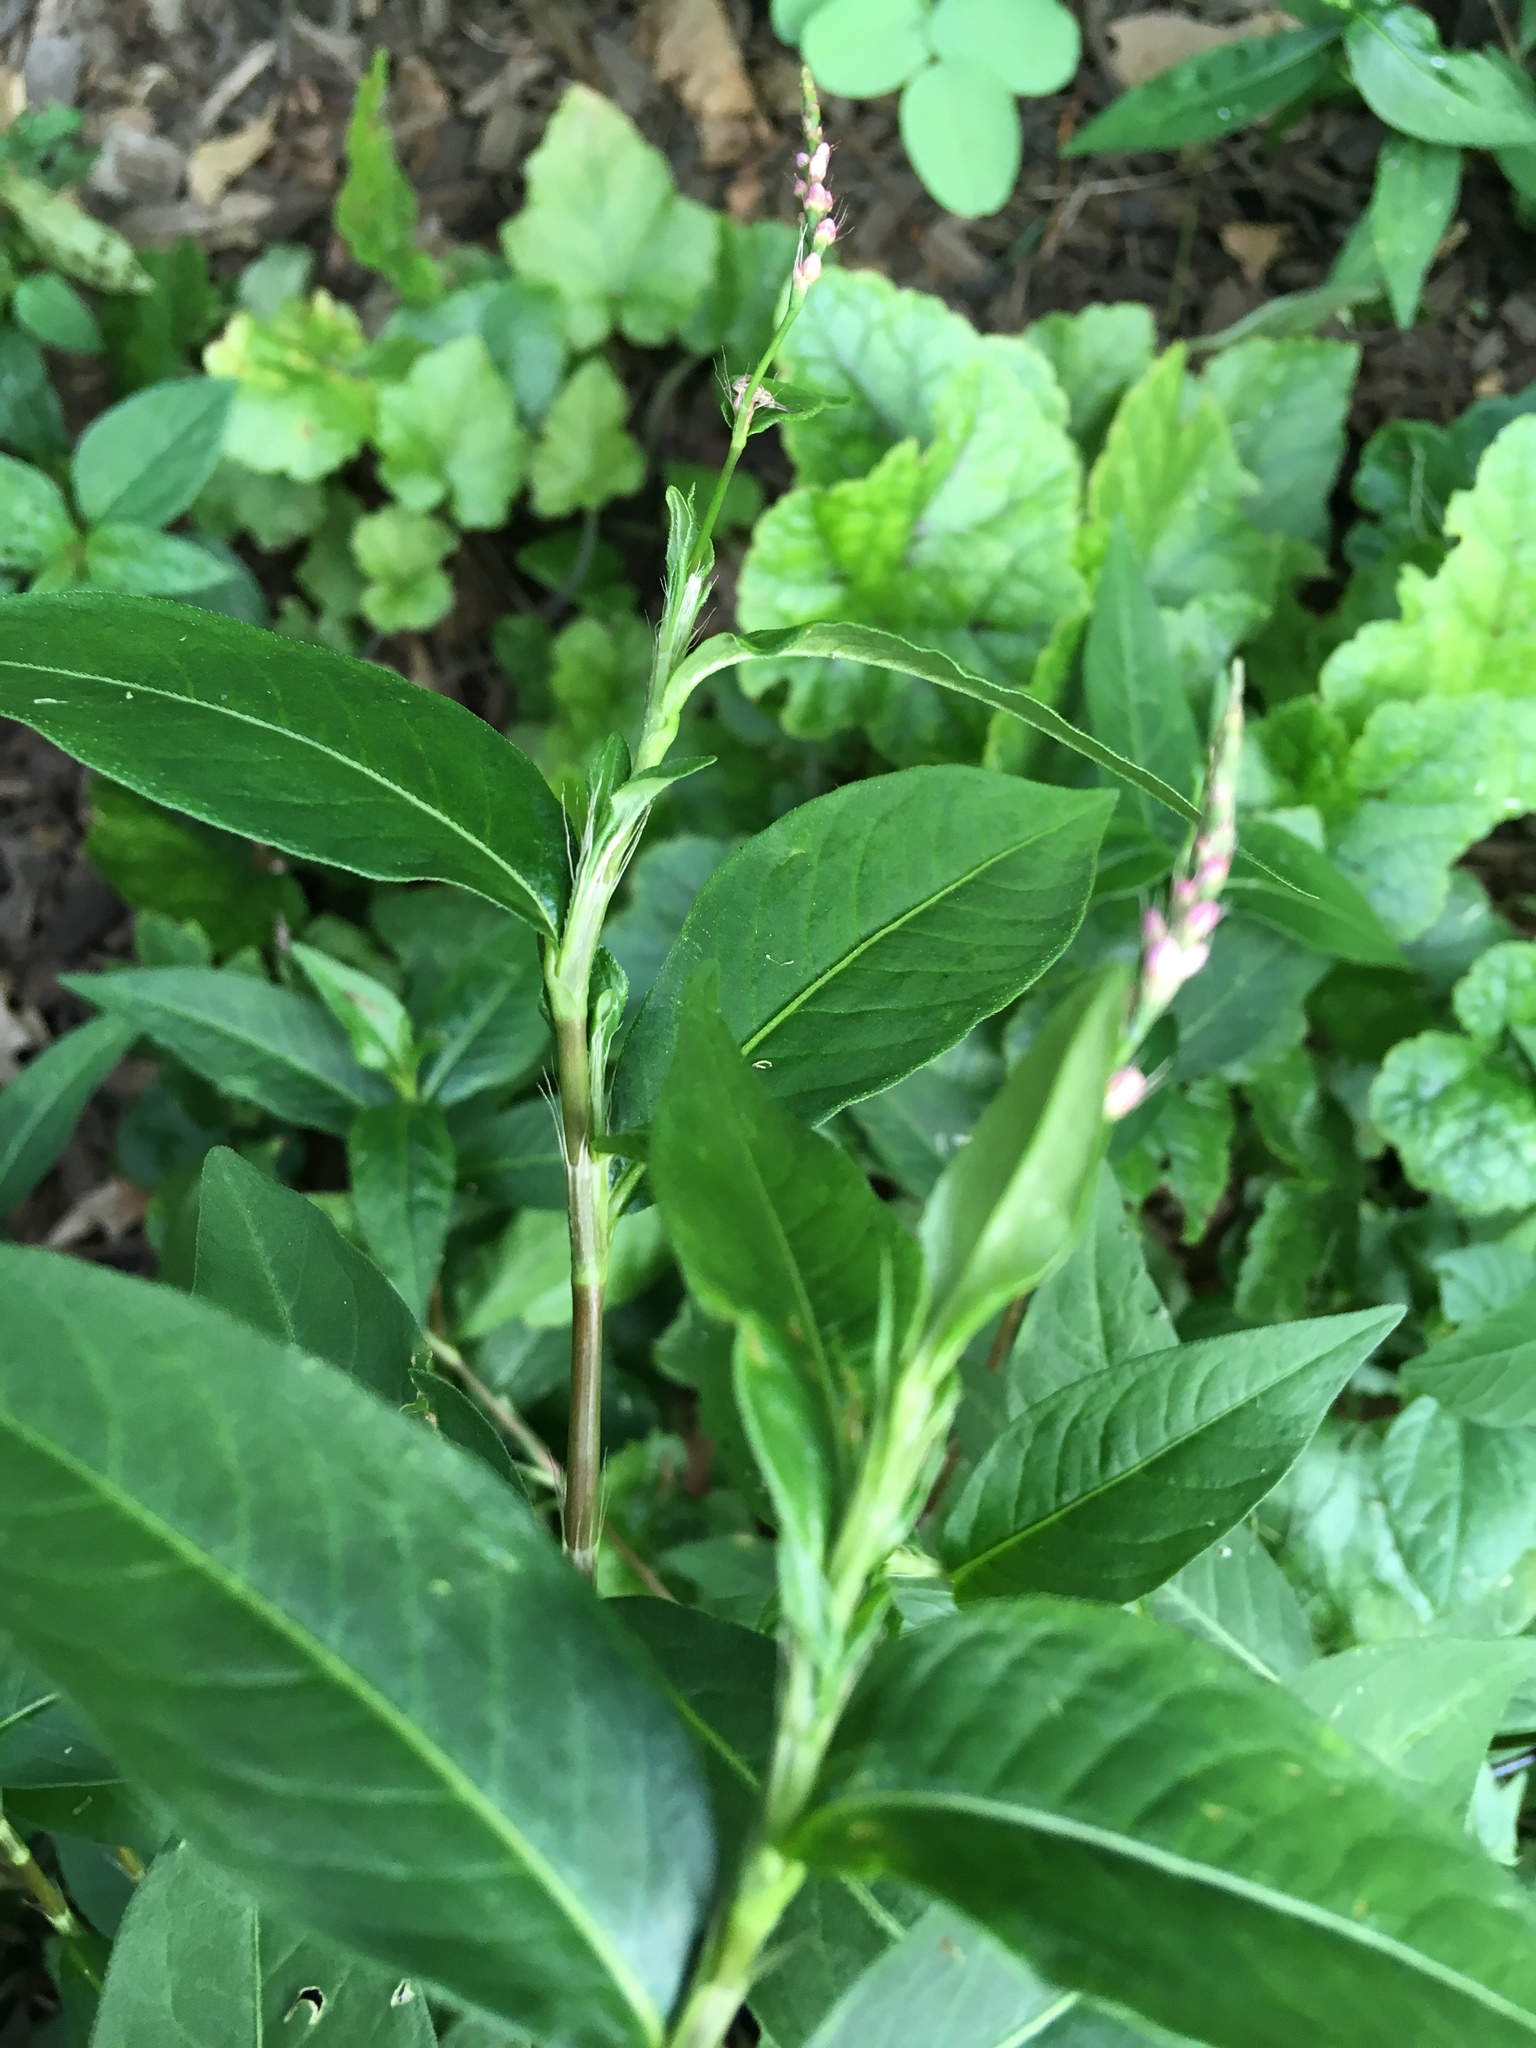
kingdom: Plantae
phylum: Tracheophyta
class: Magnoliopsida
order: Caryophyllales
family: Polygonaceae
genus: Persicaria
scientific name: Persicaria longiseta
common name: Bristly lady's-thumb
